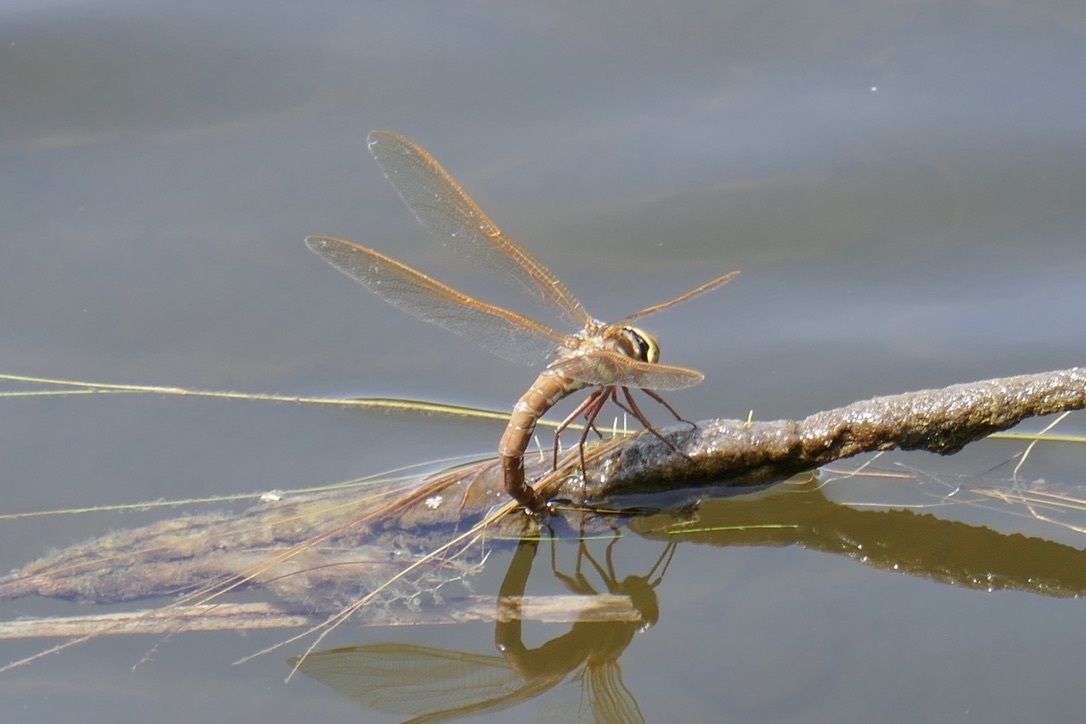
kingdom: Animalia
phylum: Arthropoda
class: Insecta
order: Odonata
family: Aeshnidae
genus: Aeshna
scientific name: Aeshna grandis
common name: Brown hawker
